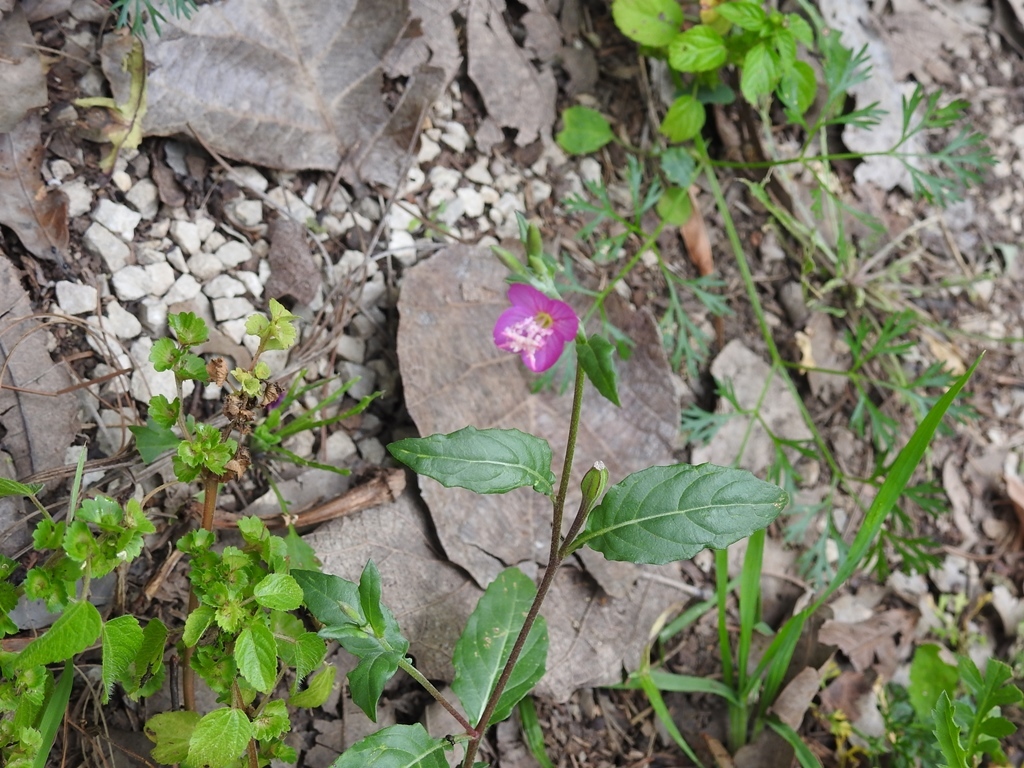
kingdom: Plantae
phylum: Tracheophyta
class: Magnoliopsida
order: Myrtales
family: Onagraceae
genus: Oenothera
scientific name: Oenothera rosea
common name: Rosy evening-primrose
